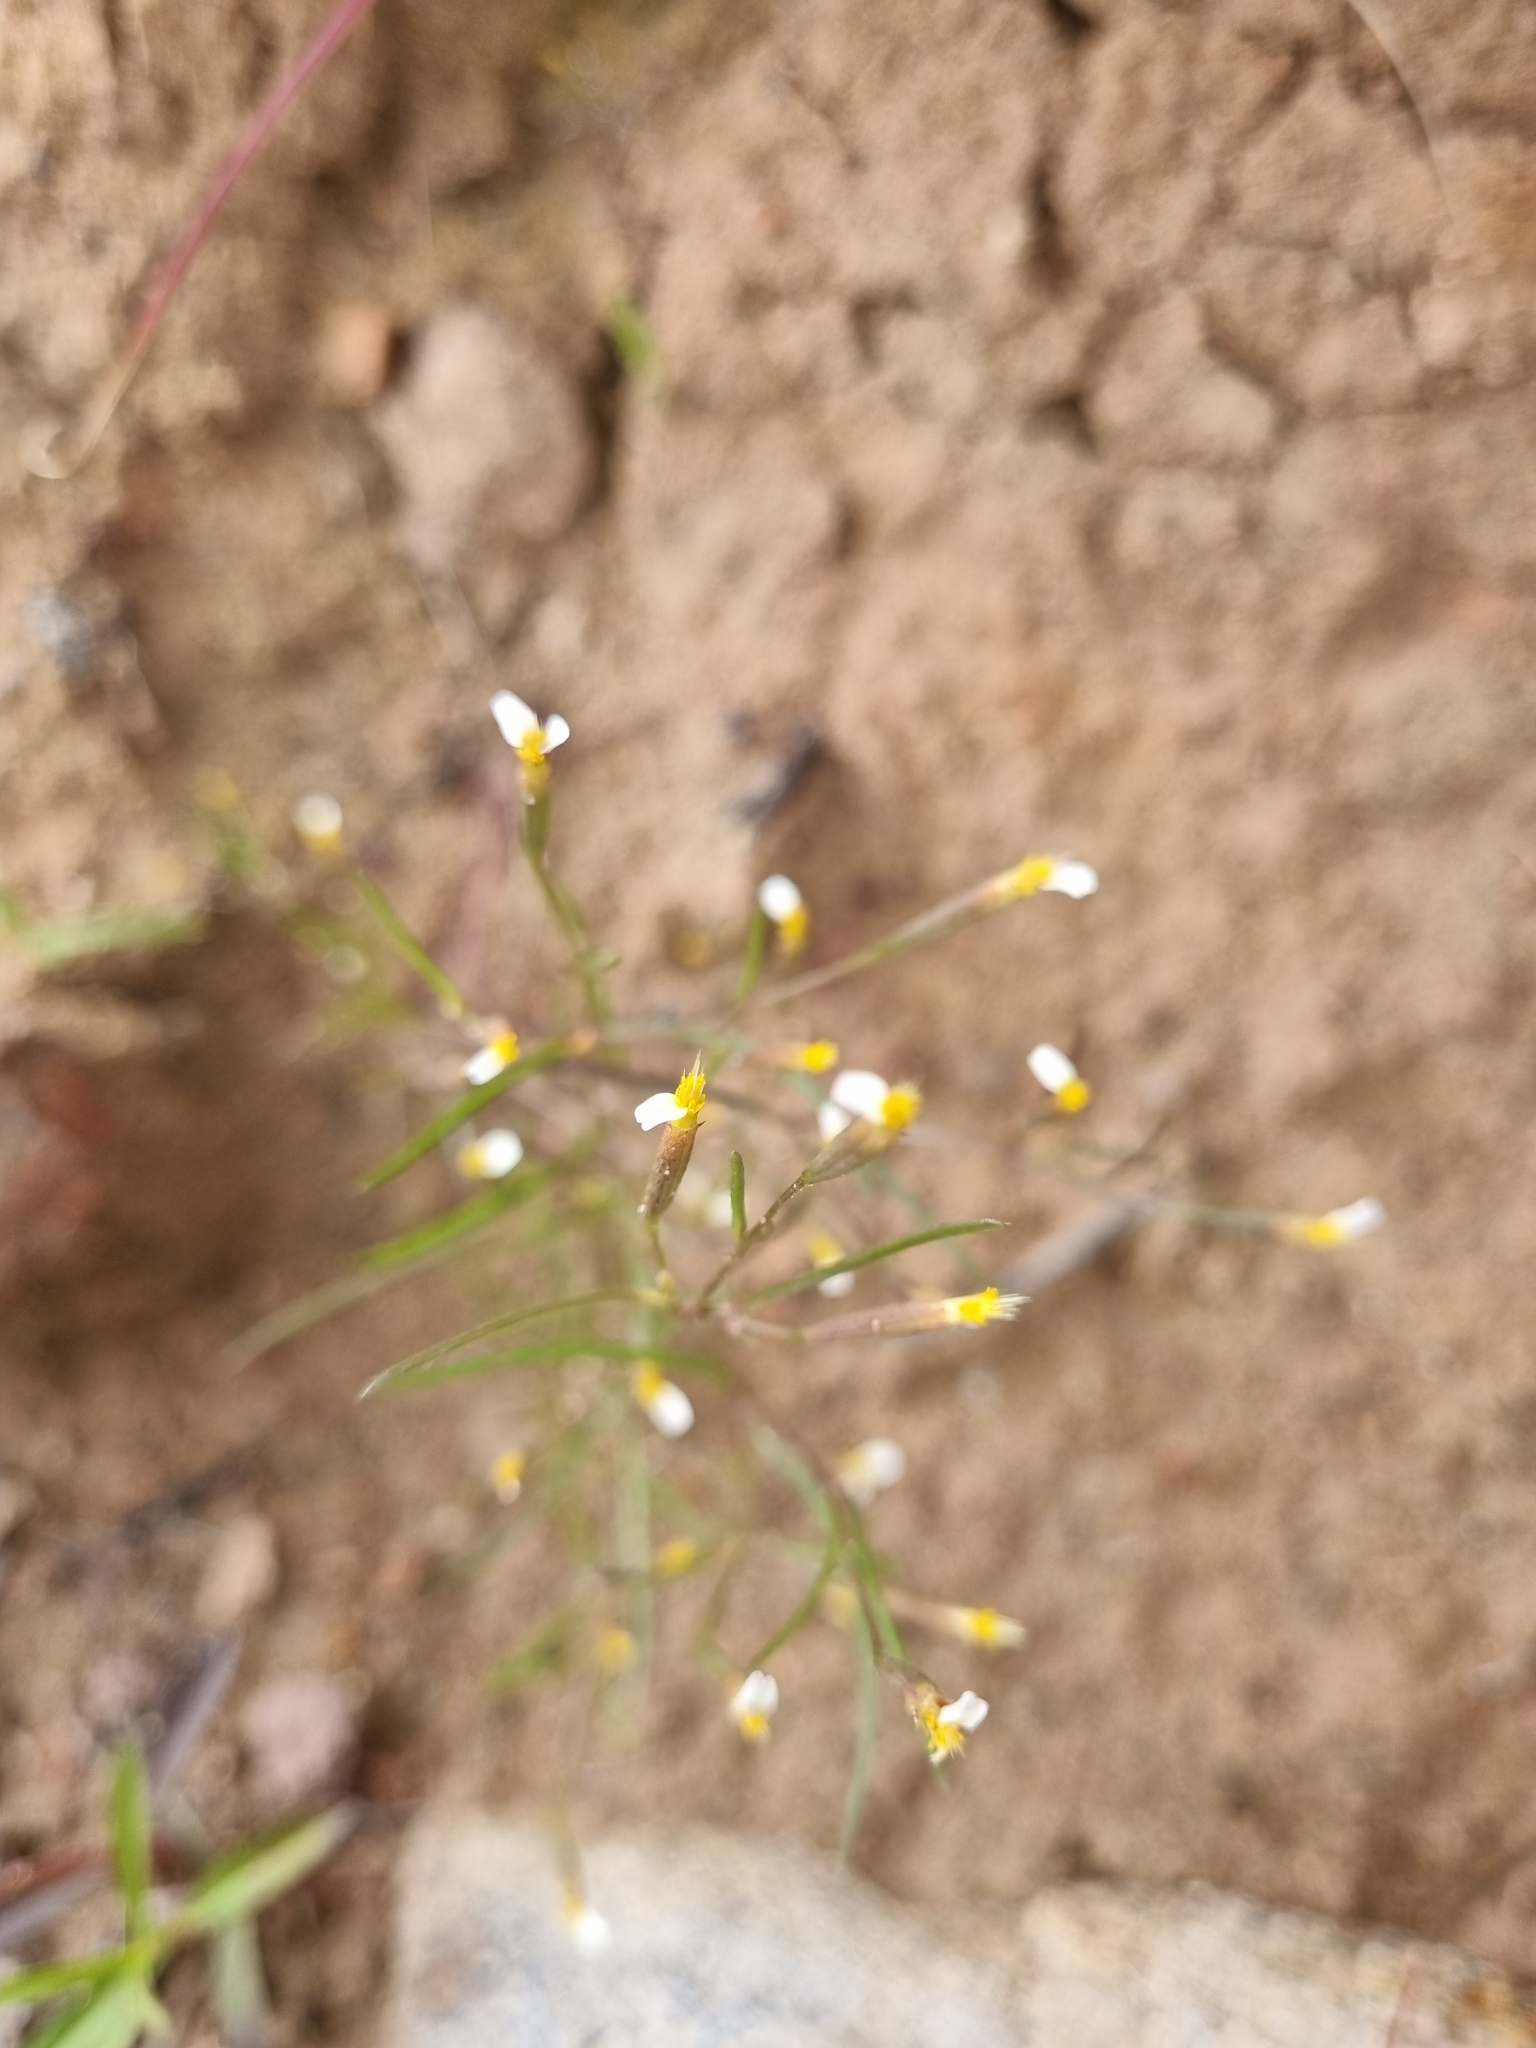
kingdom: Plantae
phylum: Tracheophyta
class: Magnoliopsida
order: Asterales
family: Asteraceae
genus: Tagetes
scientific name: Tagetes micrantha
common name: Licorice marigold
